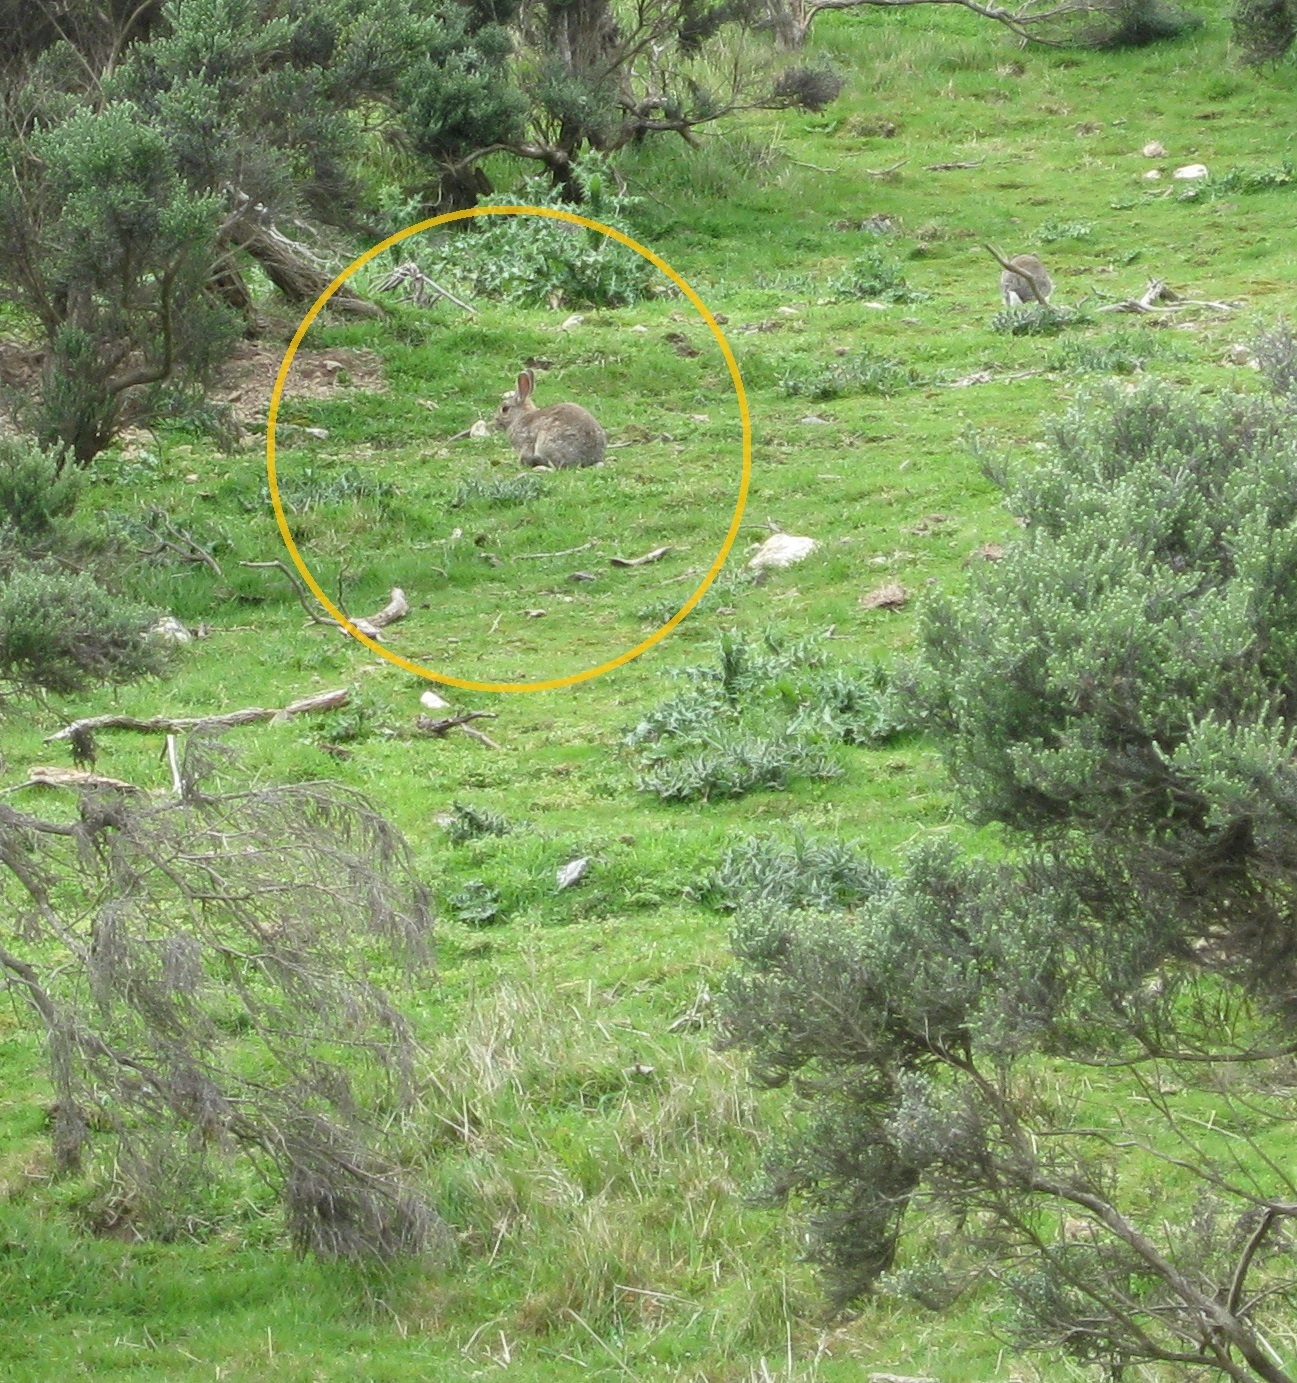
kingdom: Animalia
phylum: Chordata
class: Mammalia
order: Lagomorpha
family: Leporidae
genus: Oryctolagus
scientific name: Oryctolagus cuniculus
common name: European rabbit
